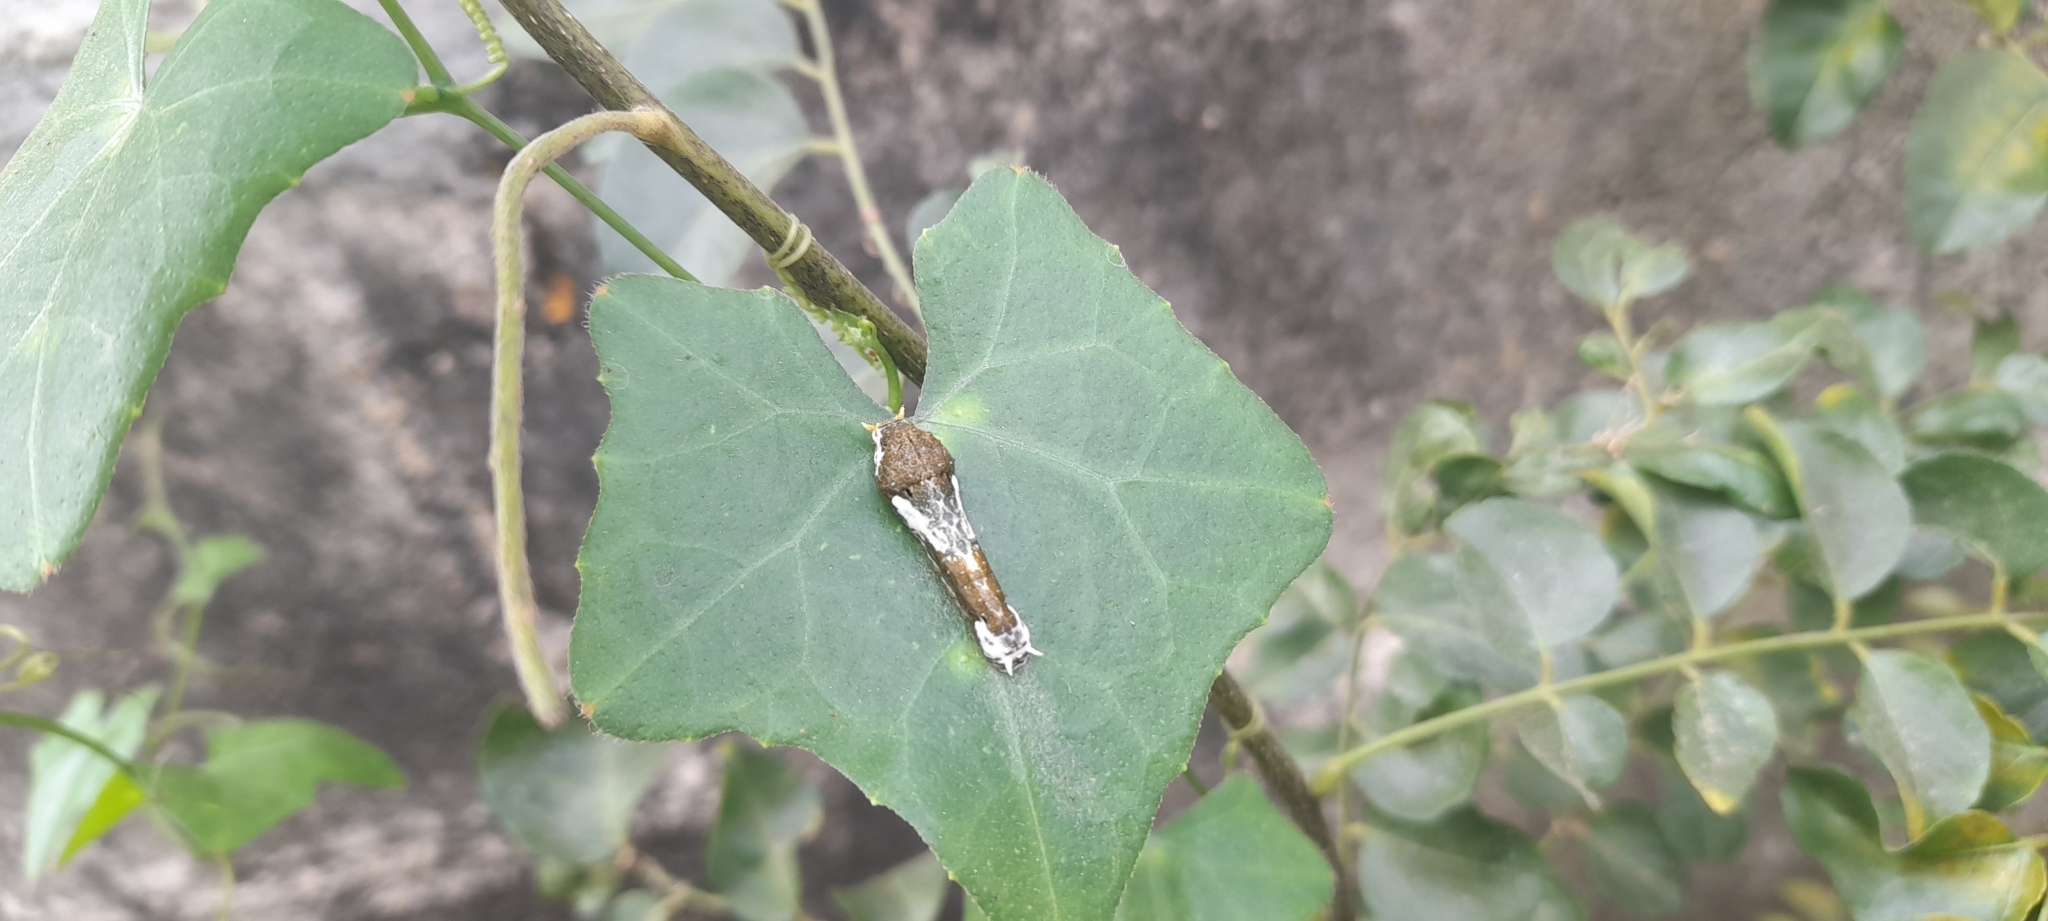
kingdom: Animalia
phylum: Arthropoda
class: Insecta
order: Lepidoptera
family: Papilionidae
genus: Papilio
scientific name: Papilio polytes
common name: Common mormon
